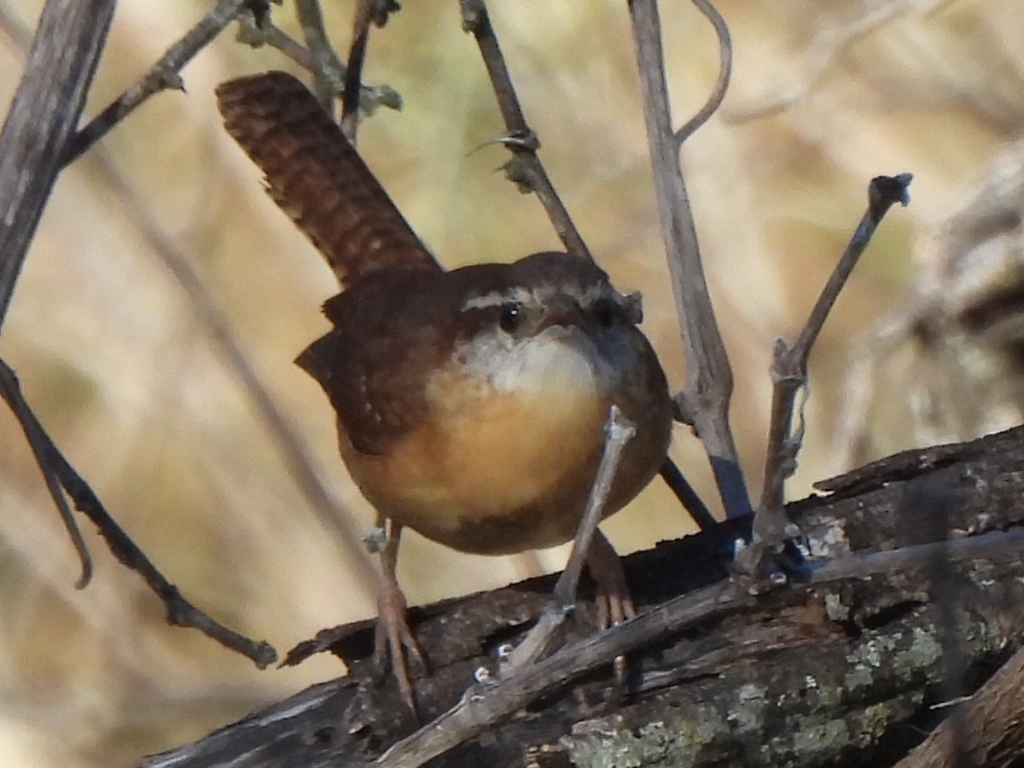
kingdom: Animalia
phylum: Chordata
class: Aves
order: Passeriformes
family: Troglodytidae
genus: Thryothorus
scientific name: Thryothorus ludovicianus
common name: Carolina wren
